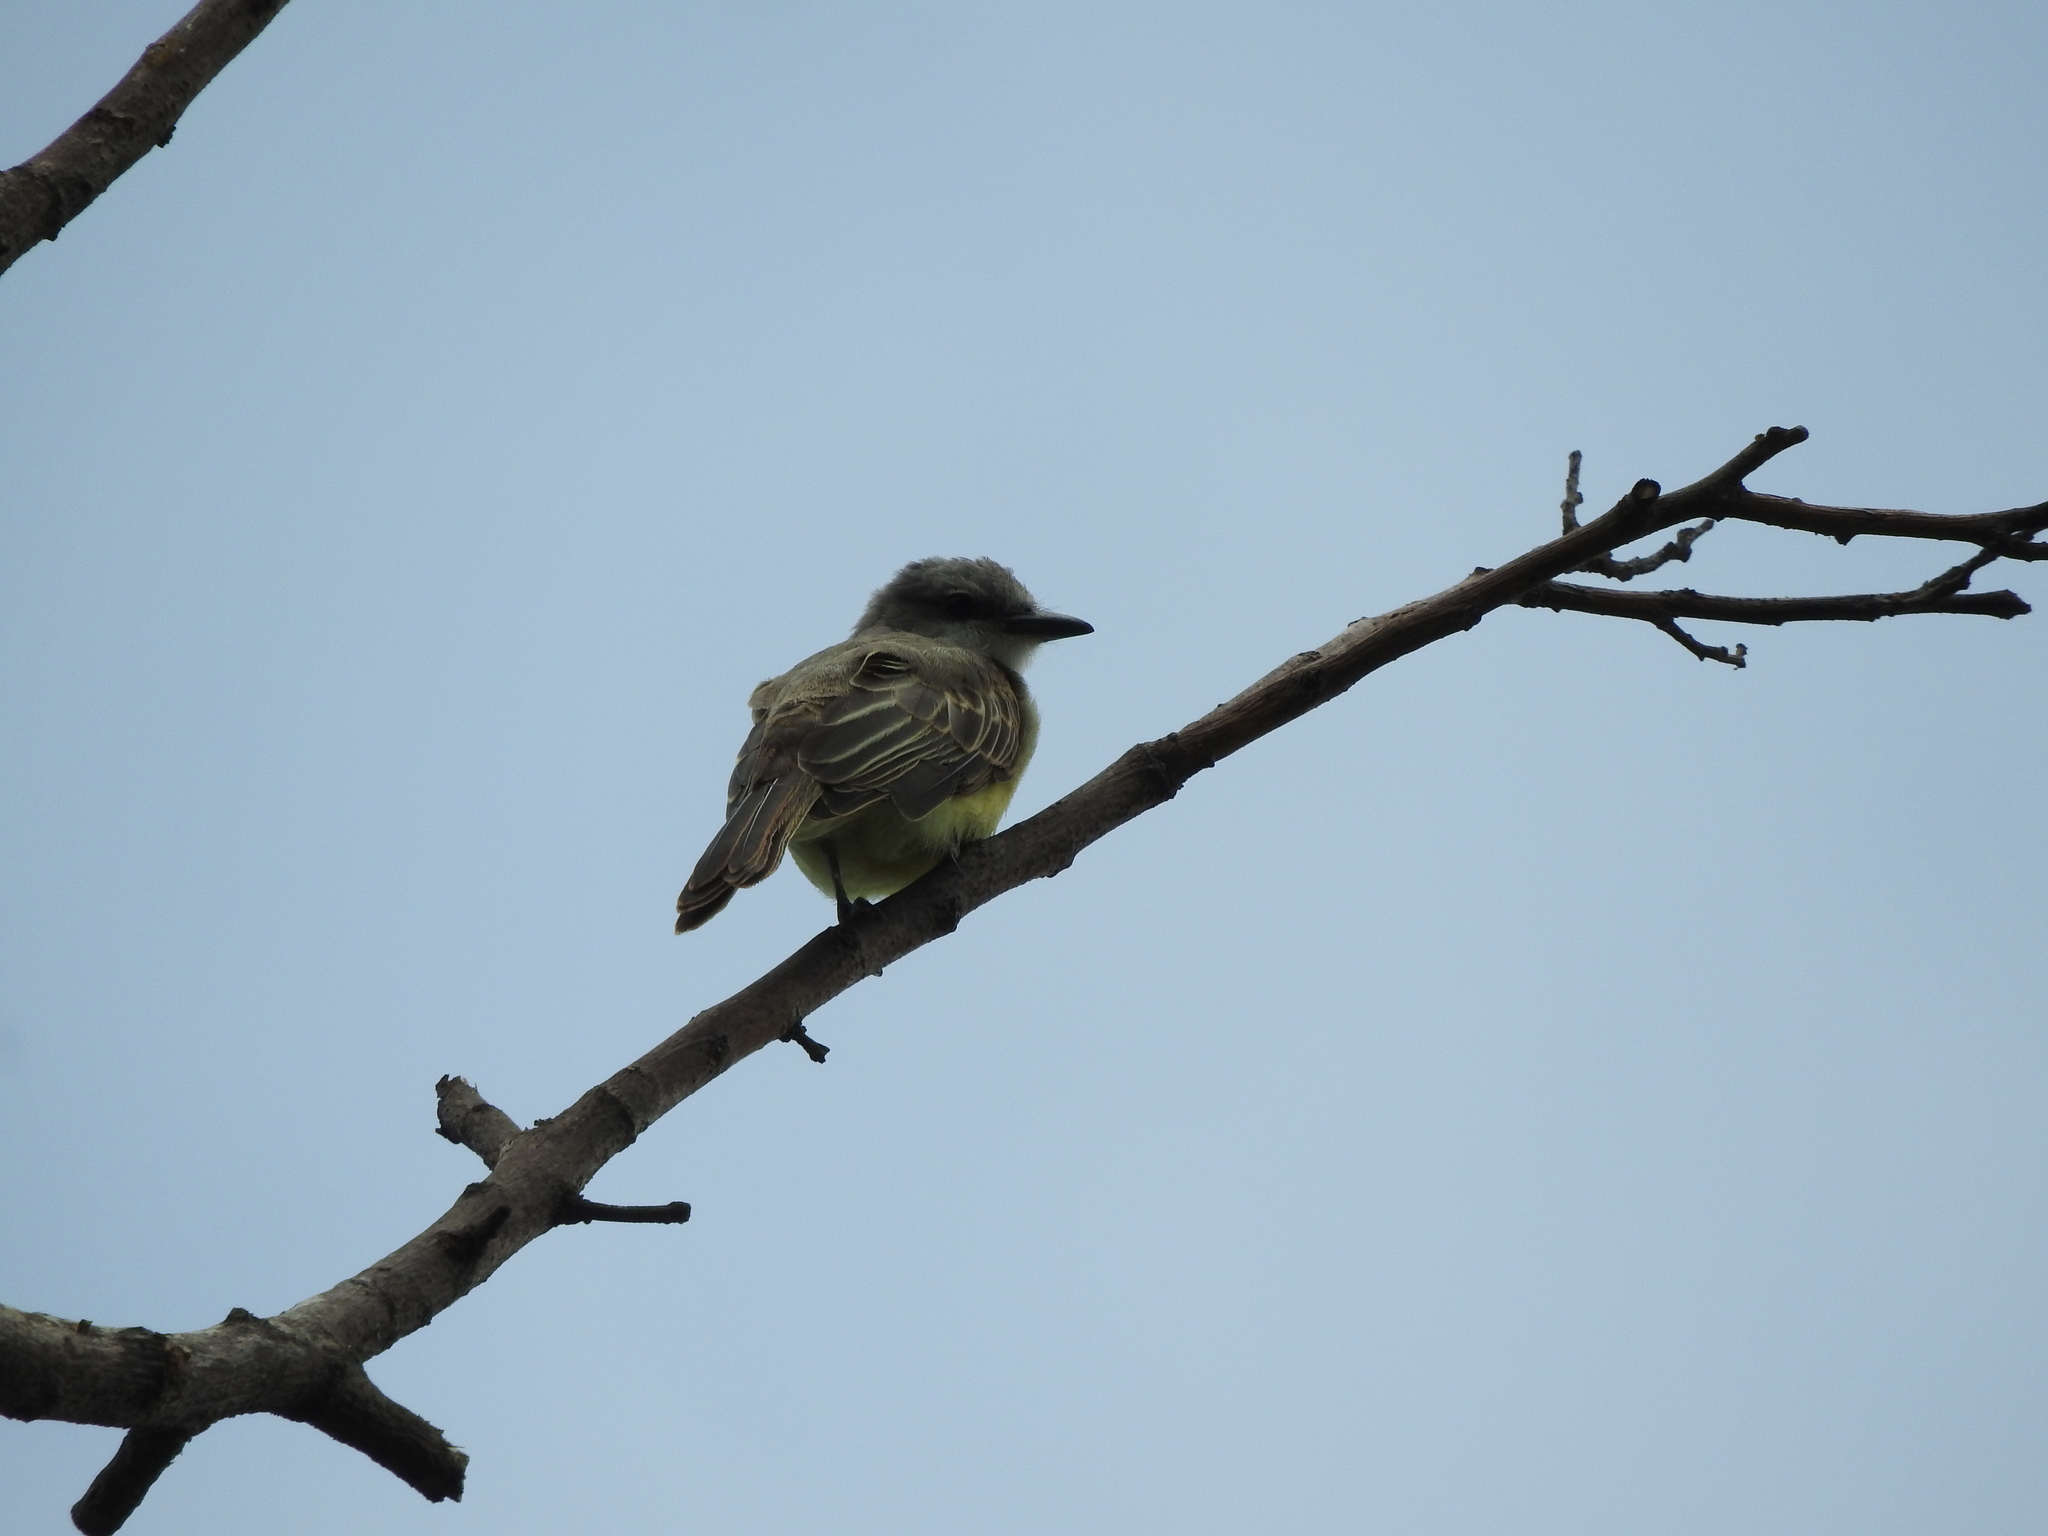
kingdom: Animalia
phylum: Chordata
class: Aves
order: Passeriformes
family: Tyrannidae
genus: Tyrannus
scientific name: Tyrannus melancholicus
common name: Tropical kingbird
